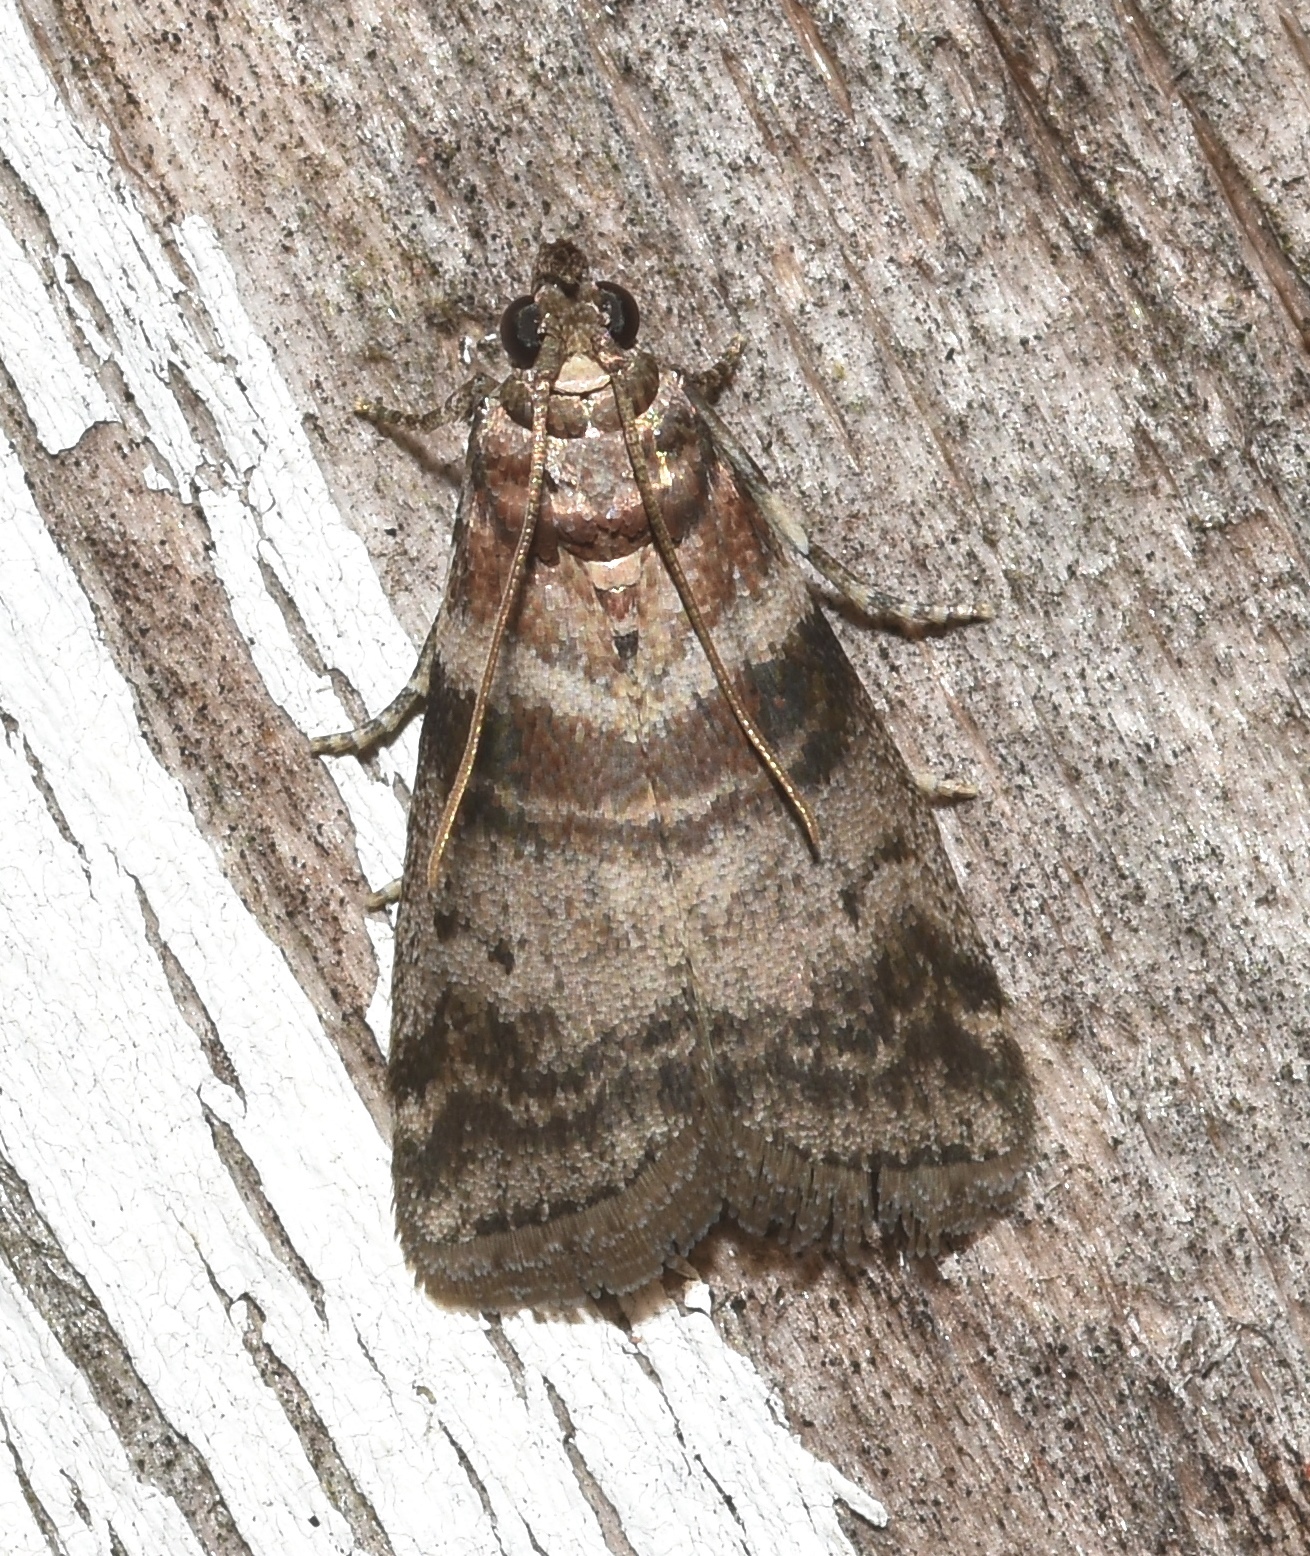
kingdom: Animalia
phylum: Arthropoda
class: Insecta
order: Lepidoptera
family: Pyralidae
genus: Sciota
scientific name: Sciota uvinella
